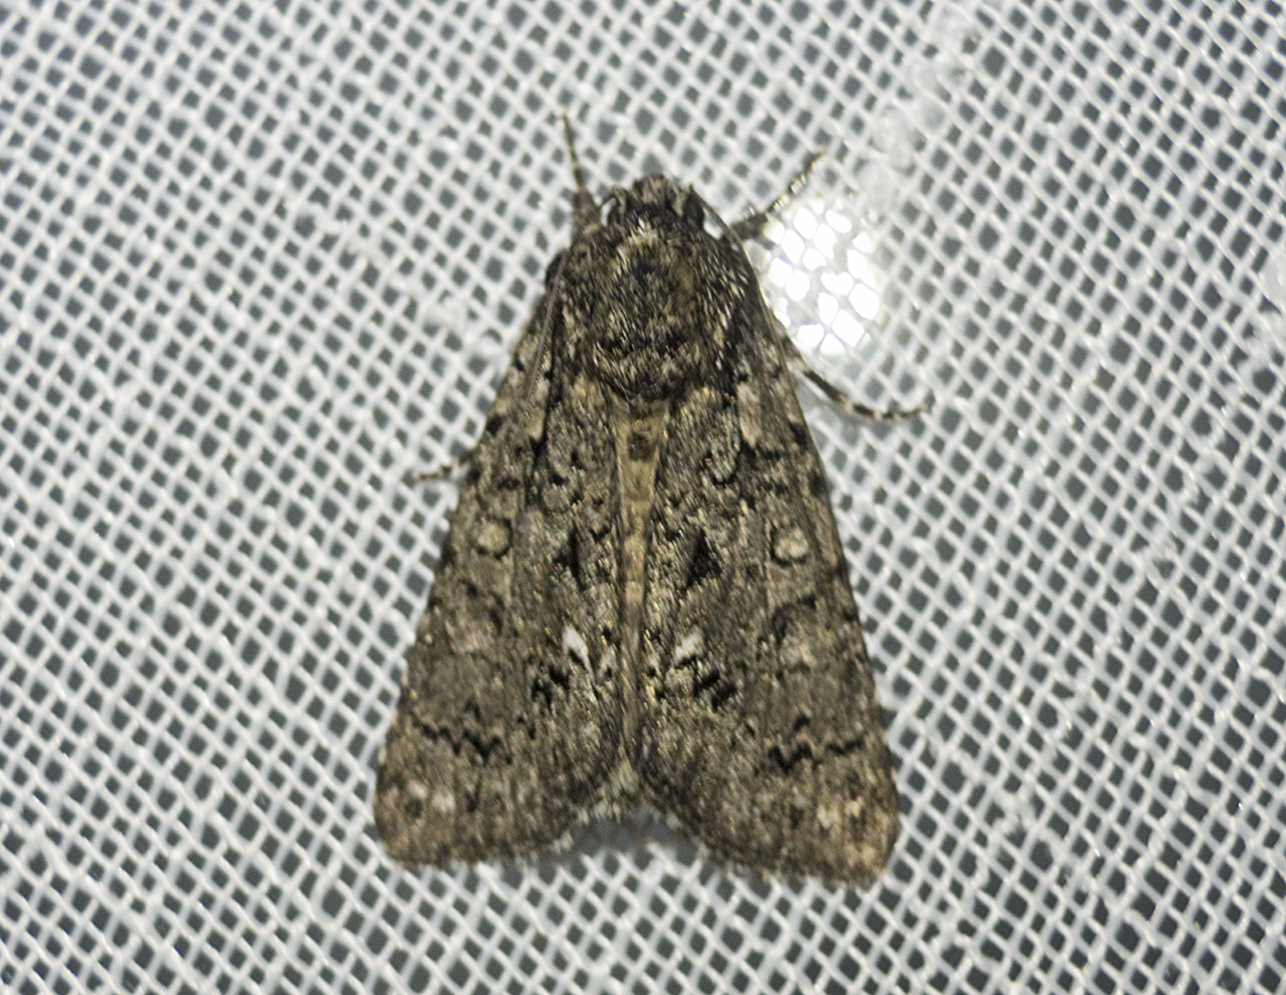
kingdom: Animalia
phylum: Arthropoda
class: Insecta
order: Lepidoptera
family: Noctuidae
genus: Acronicta
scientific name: Acronicta rumicis
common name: Knot grass
